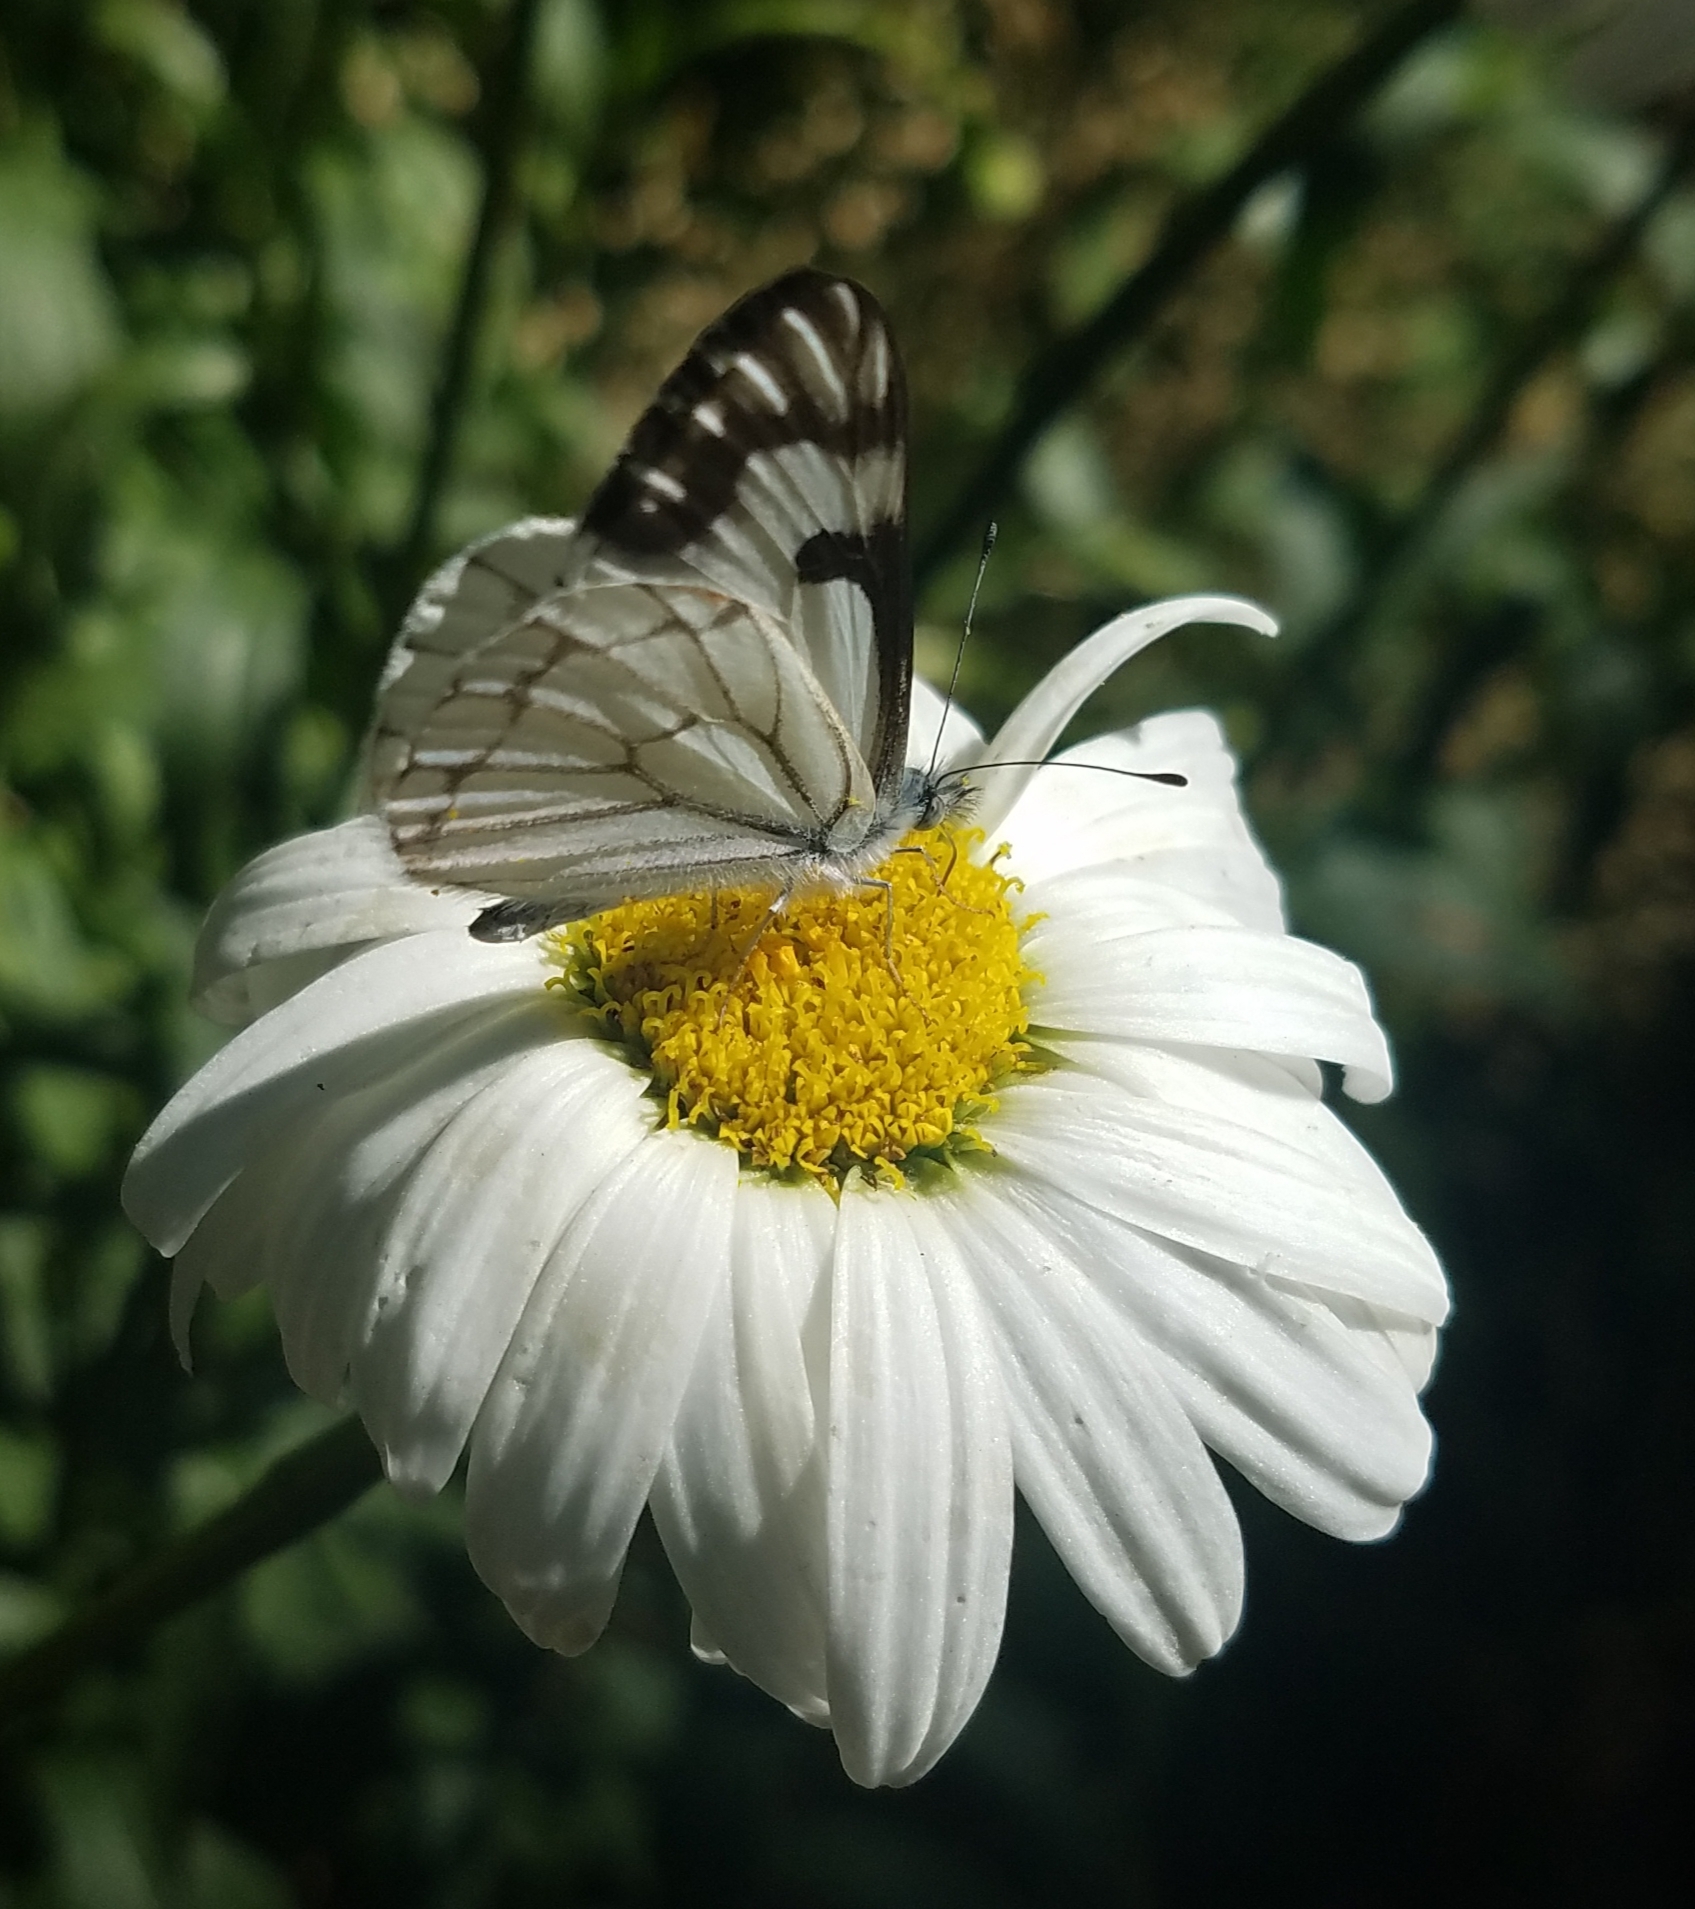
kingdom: Animalia
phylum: Arthropoda
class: Insecta
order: Lepidoptera
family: Pieridae
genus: Neophasia
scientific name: Neophasia menapia
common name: Pine white
